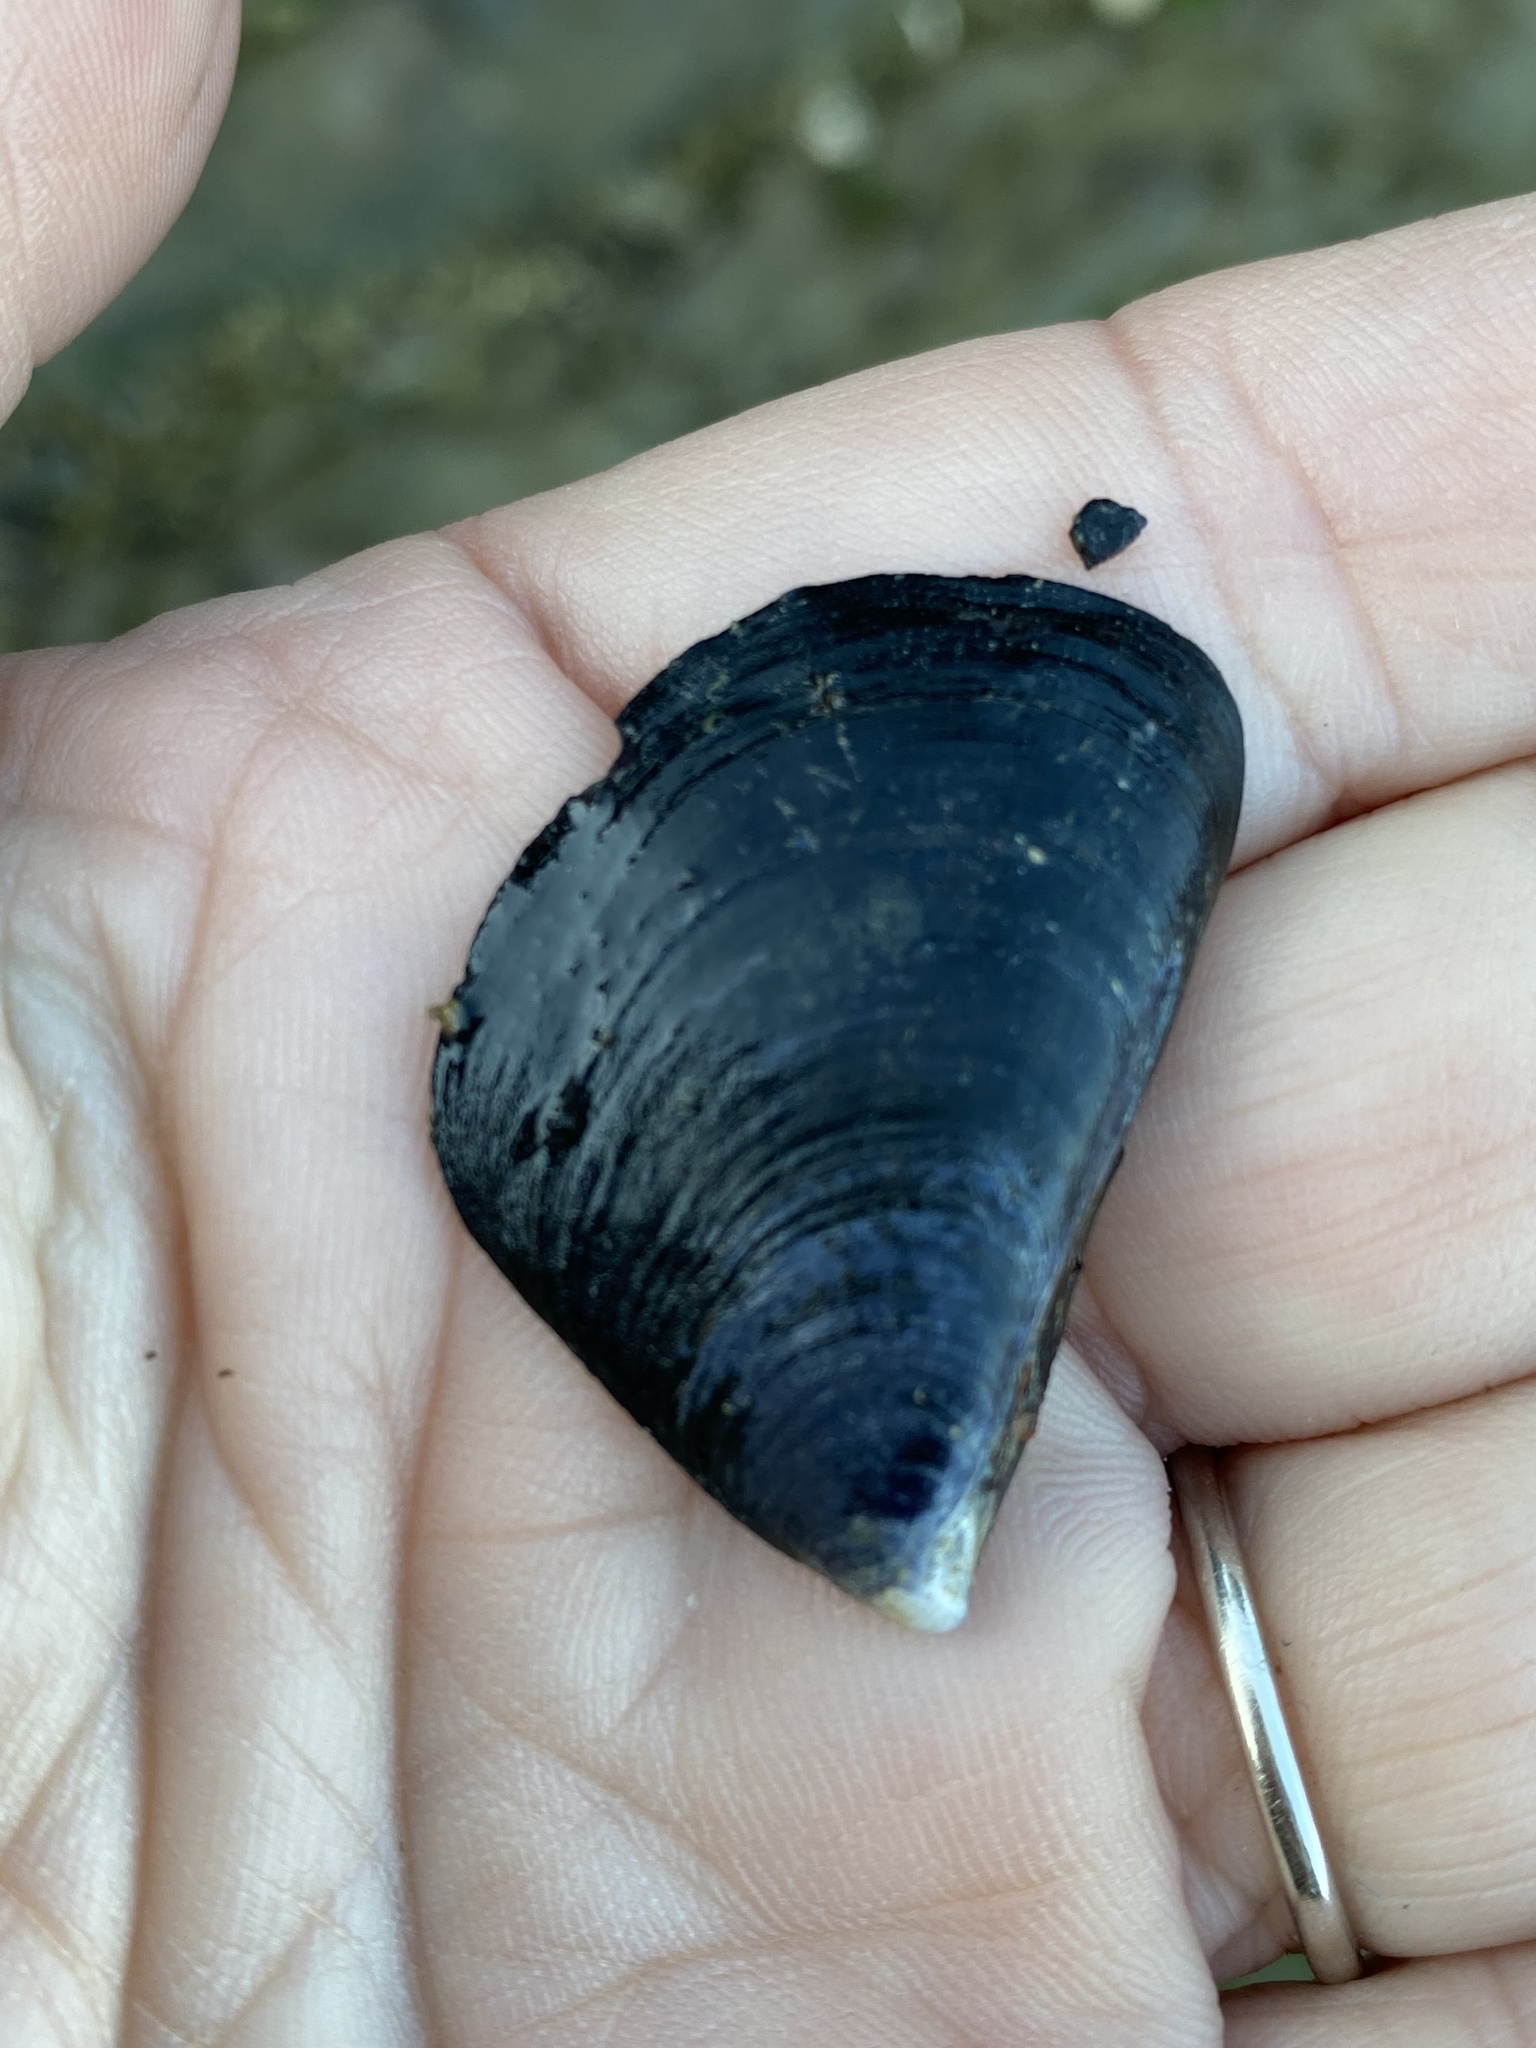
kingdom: Animalia
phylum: Mollusca
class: Bivalvia
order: Mytilida
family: Mytilidae
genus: Mytilus
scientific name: Mytilus
